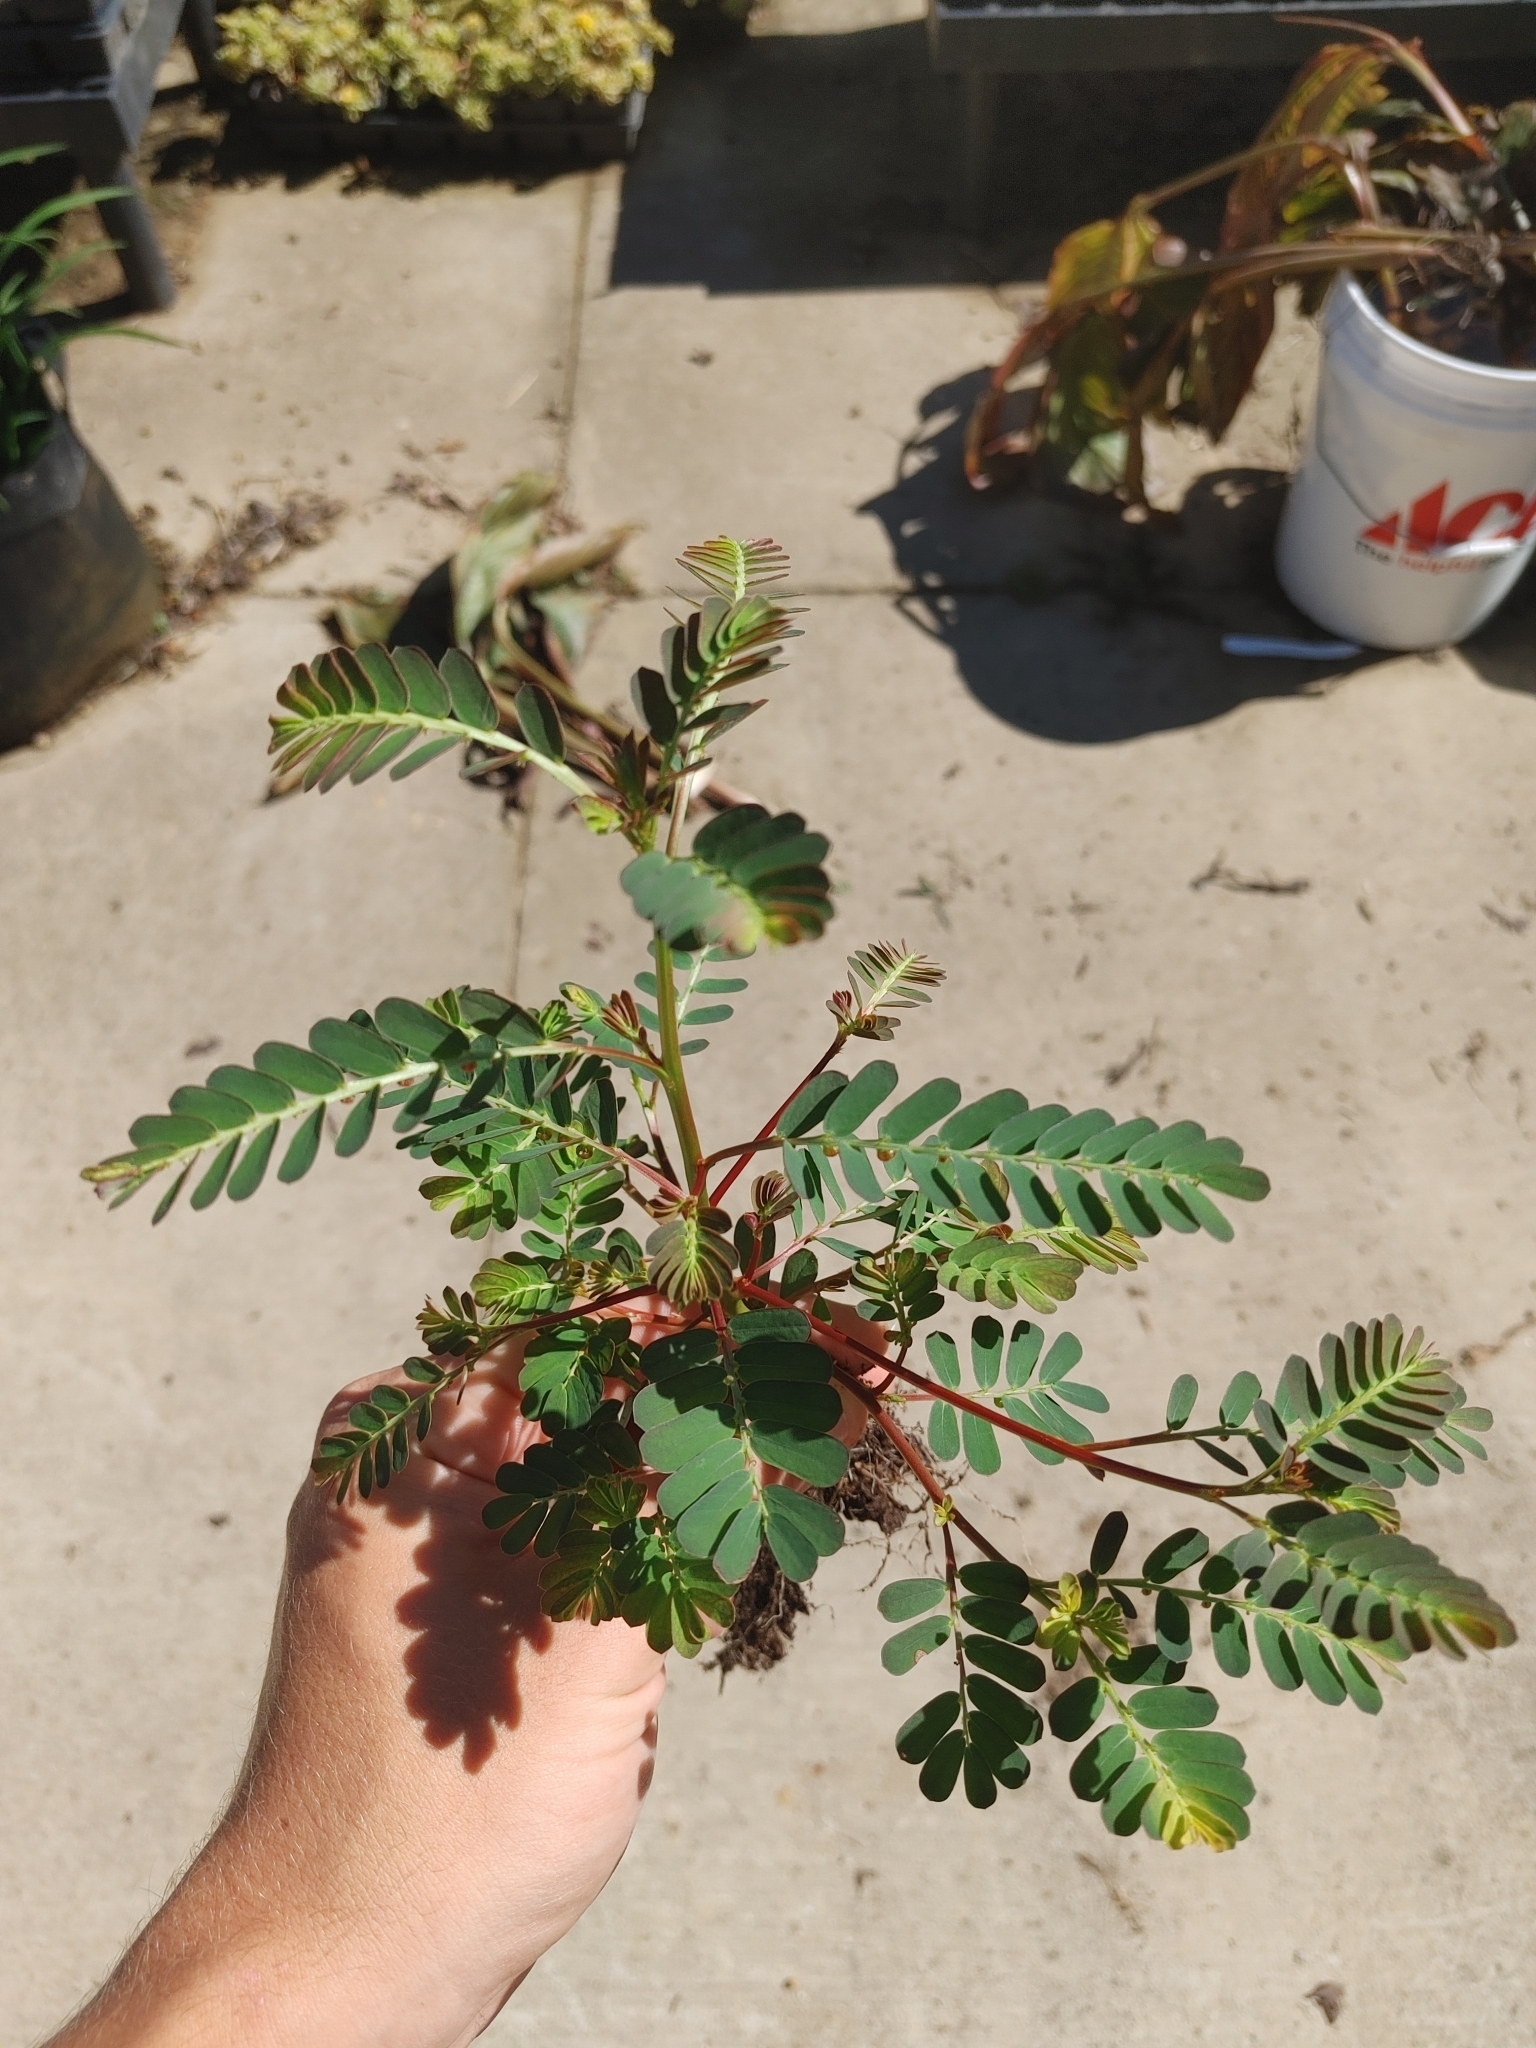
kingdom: Plantae
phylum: Tracheophyta
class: Magnoliopsida
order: Malpighiales
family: Phyllanthaceae
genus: Phyllanthus
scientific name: Phyllanthus urinaria
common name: Chamber bitter
